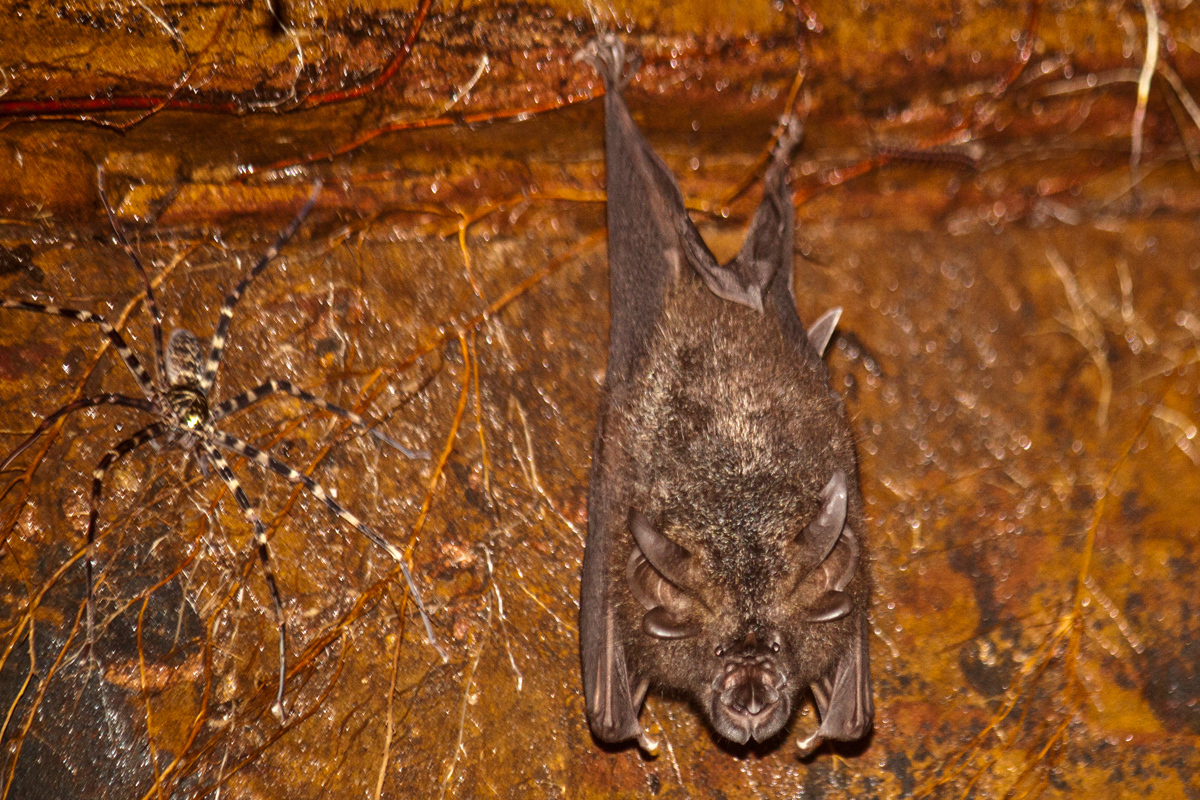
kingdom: Animalia
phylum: Chordata
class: Mammalia
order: Chiroptera
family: Rhinolophidae
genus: Rhinolophus
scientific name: Rhinolophus luctus
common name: Woolly horseshoe bat
